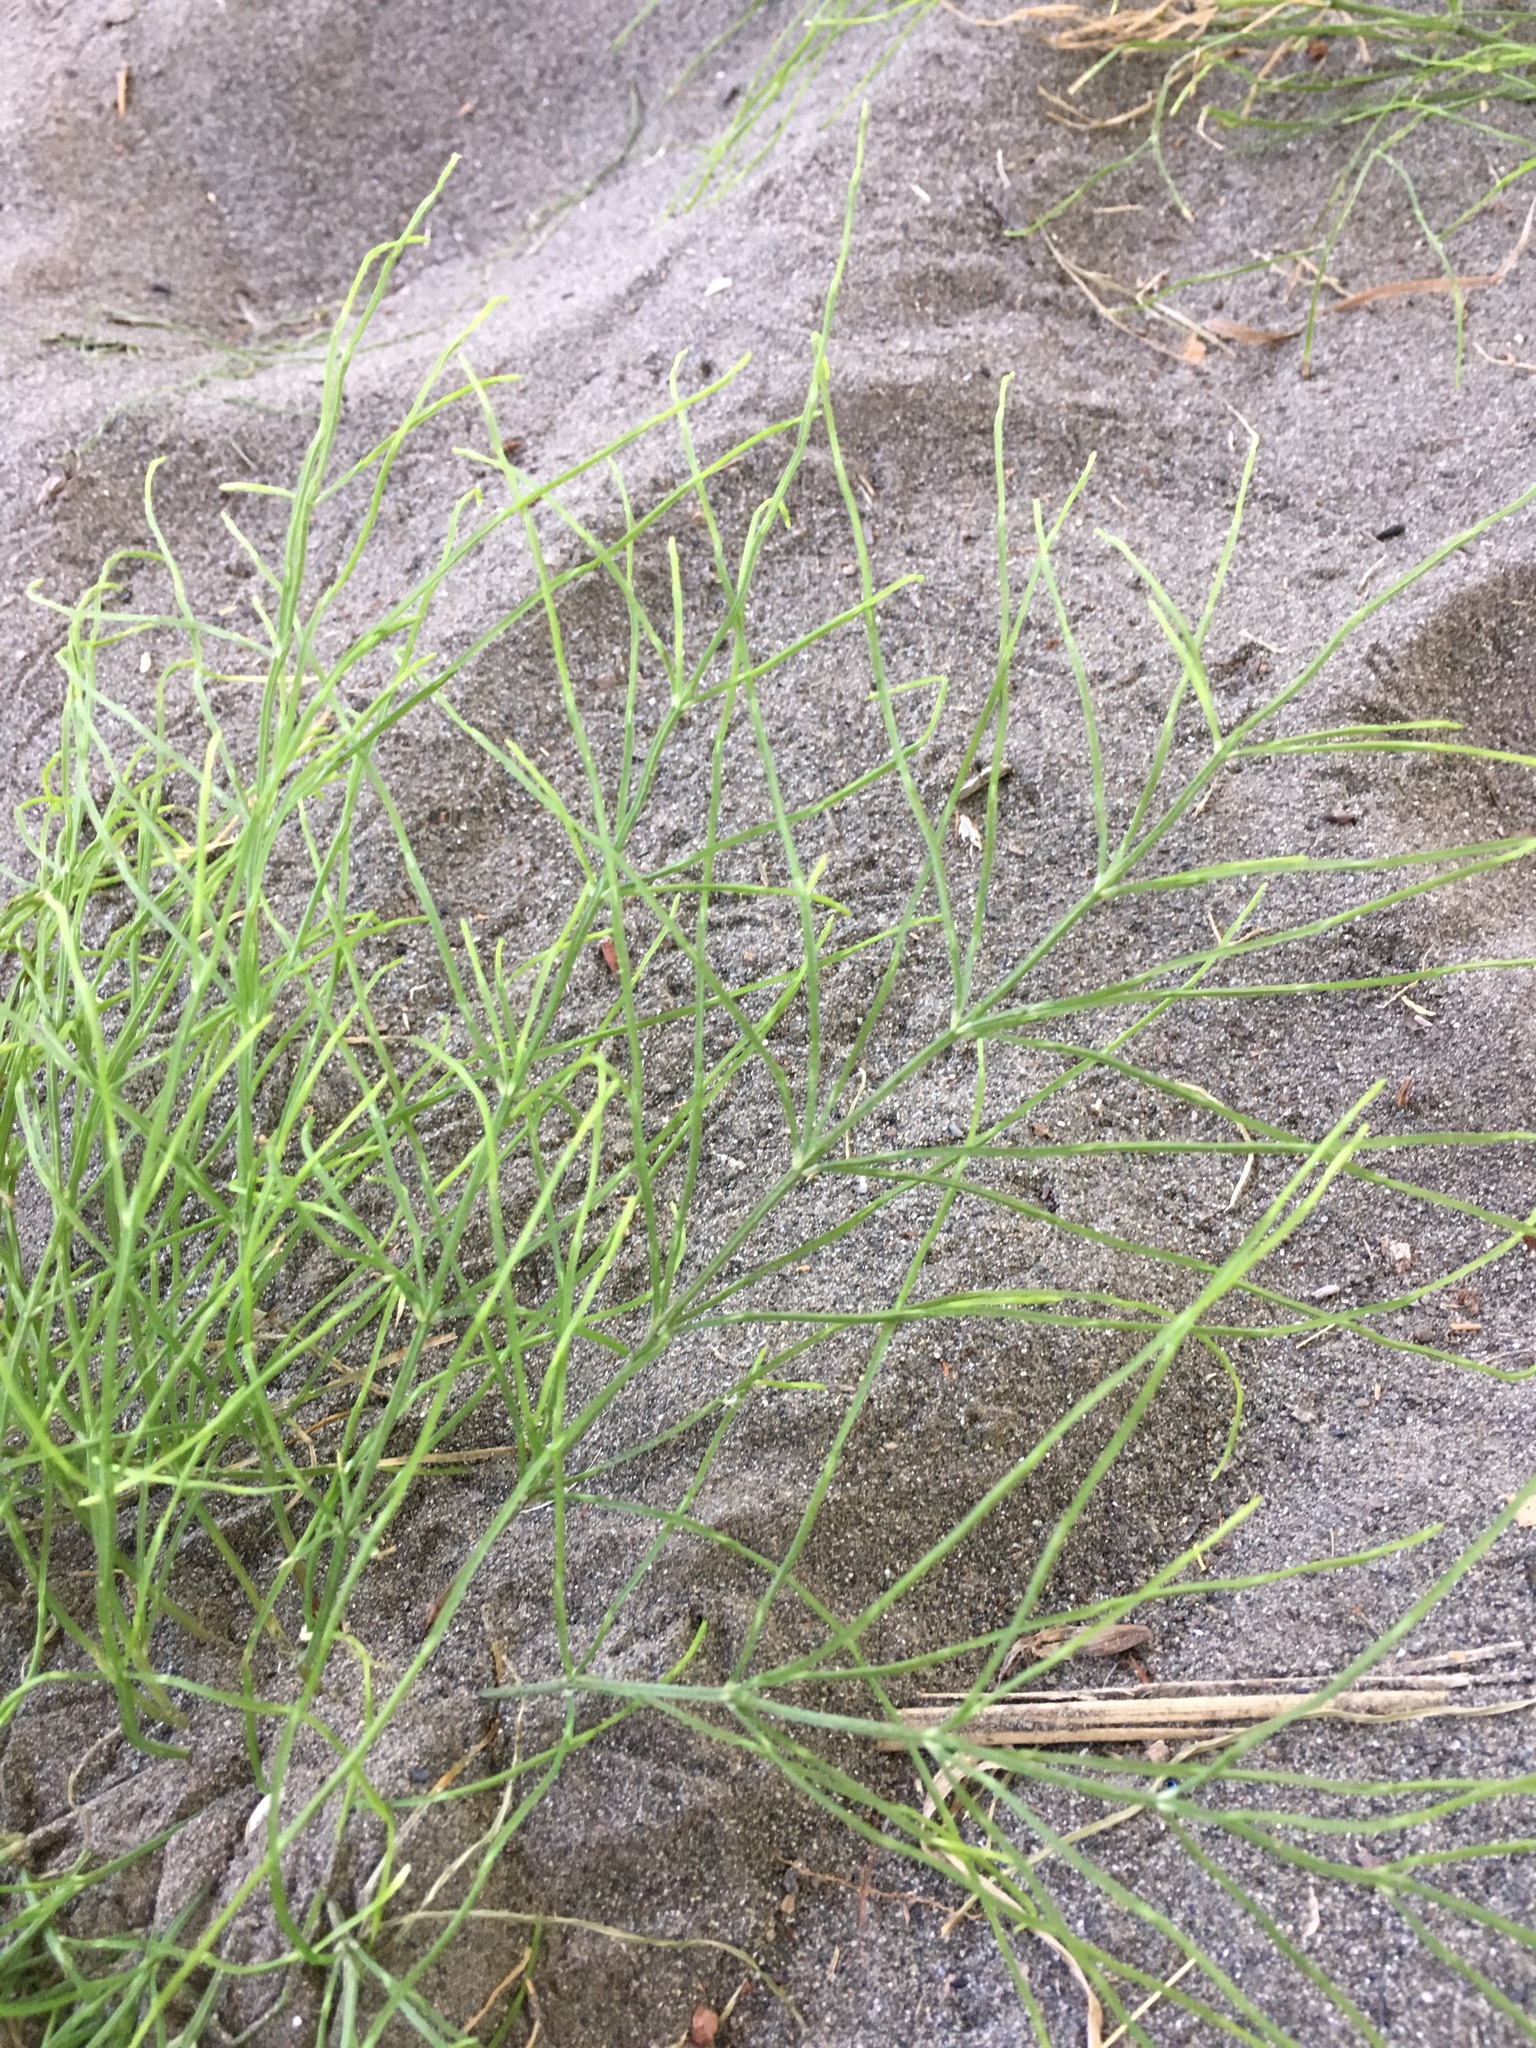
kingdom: Plantae
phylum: Tracheophyta
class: Polypodiopsida
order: Equisetales
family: Equisetaceae
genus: Equisetum
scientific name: Equisetum arvense
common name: Field horsetail
